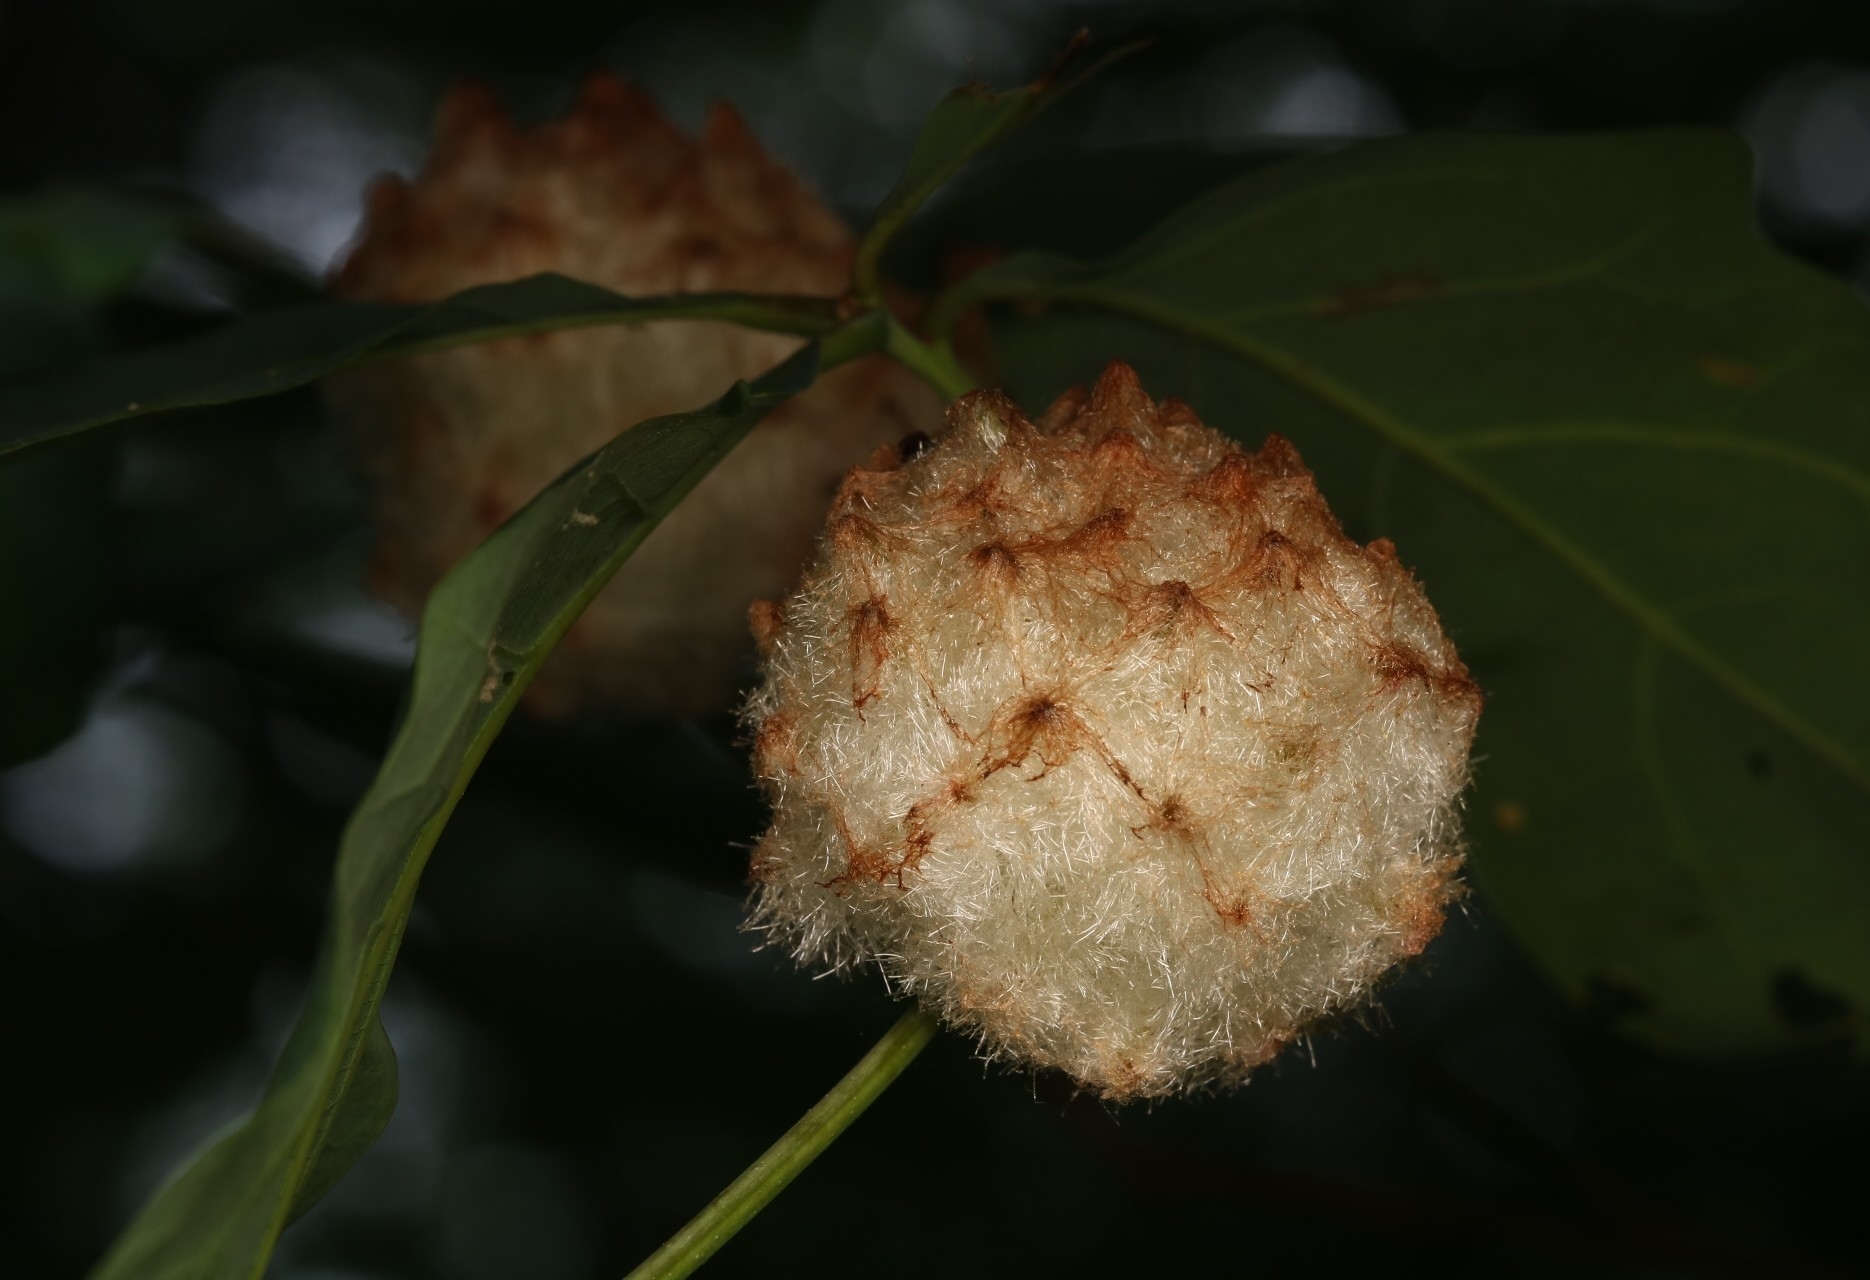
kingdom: Animalia
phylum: Arthropoda
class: Insecta
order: Hymenoptera
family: Cynipidae
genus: Callirhytis
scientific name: Callirhytis
